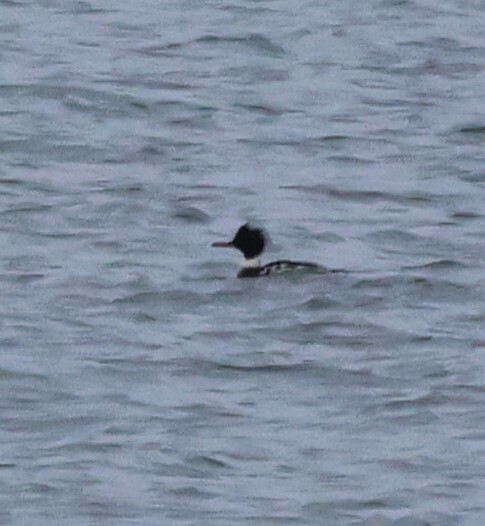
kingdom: Animalia
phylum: Chordata
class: Aves
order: Anseriformes
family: Anatidae
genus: Mergus
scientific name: Mergus serrator
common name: Red-breasted merganser
